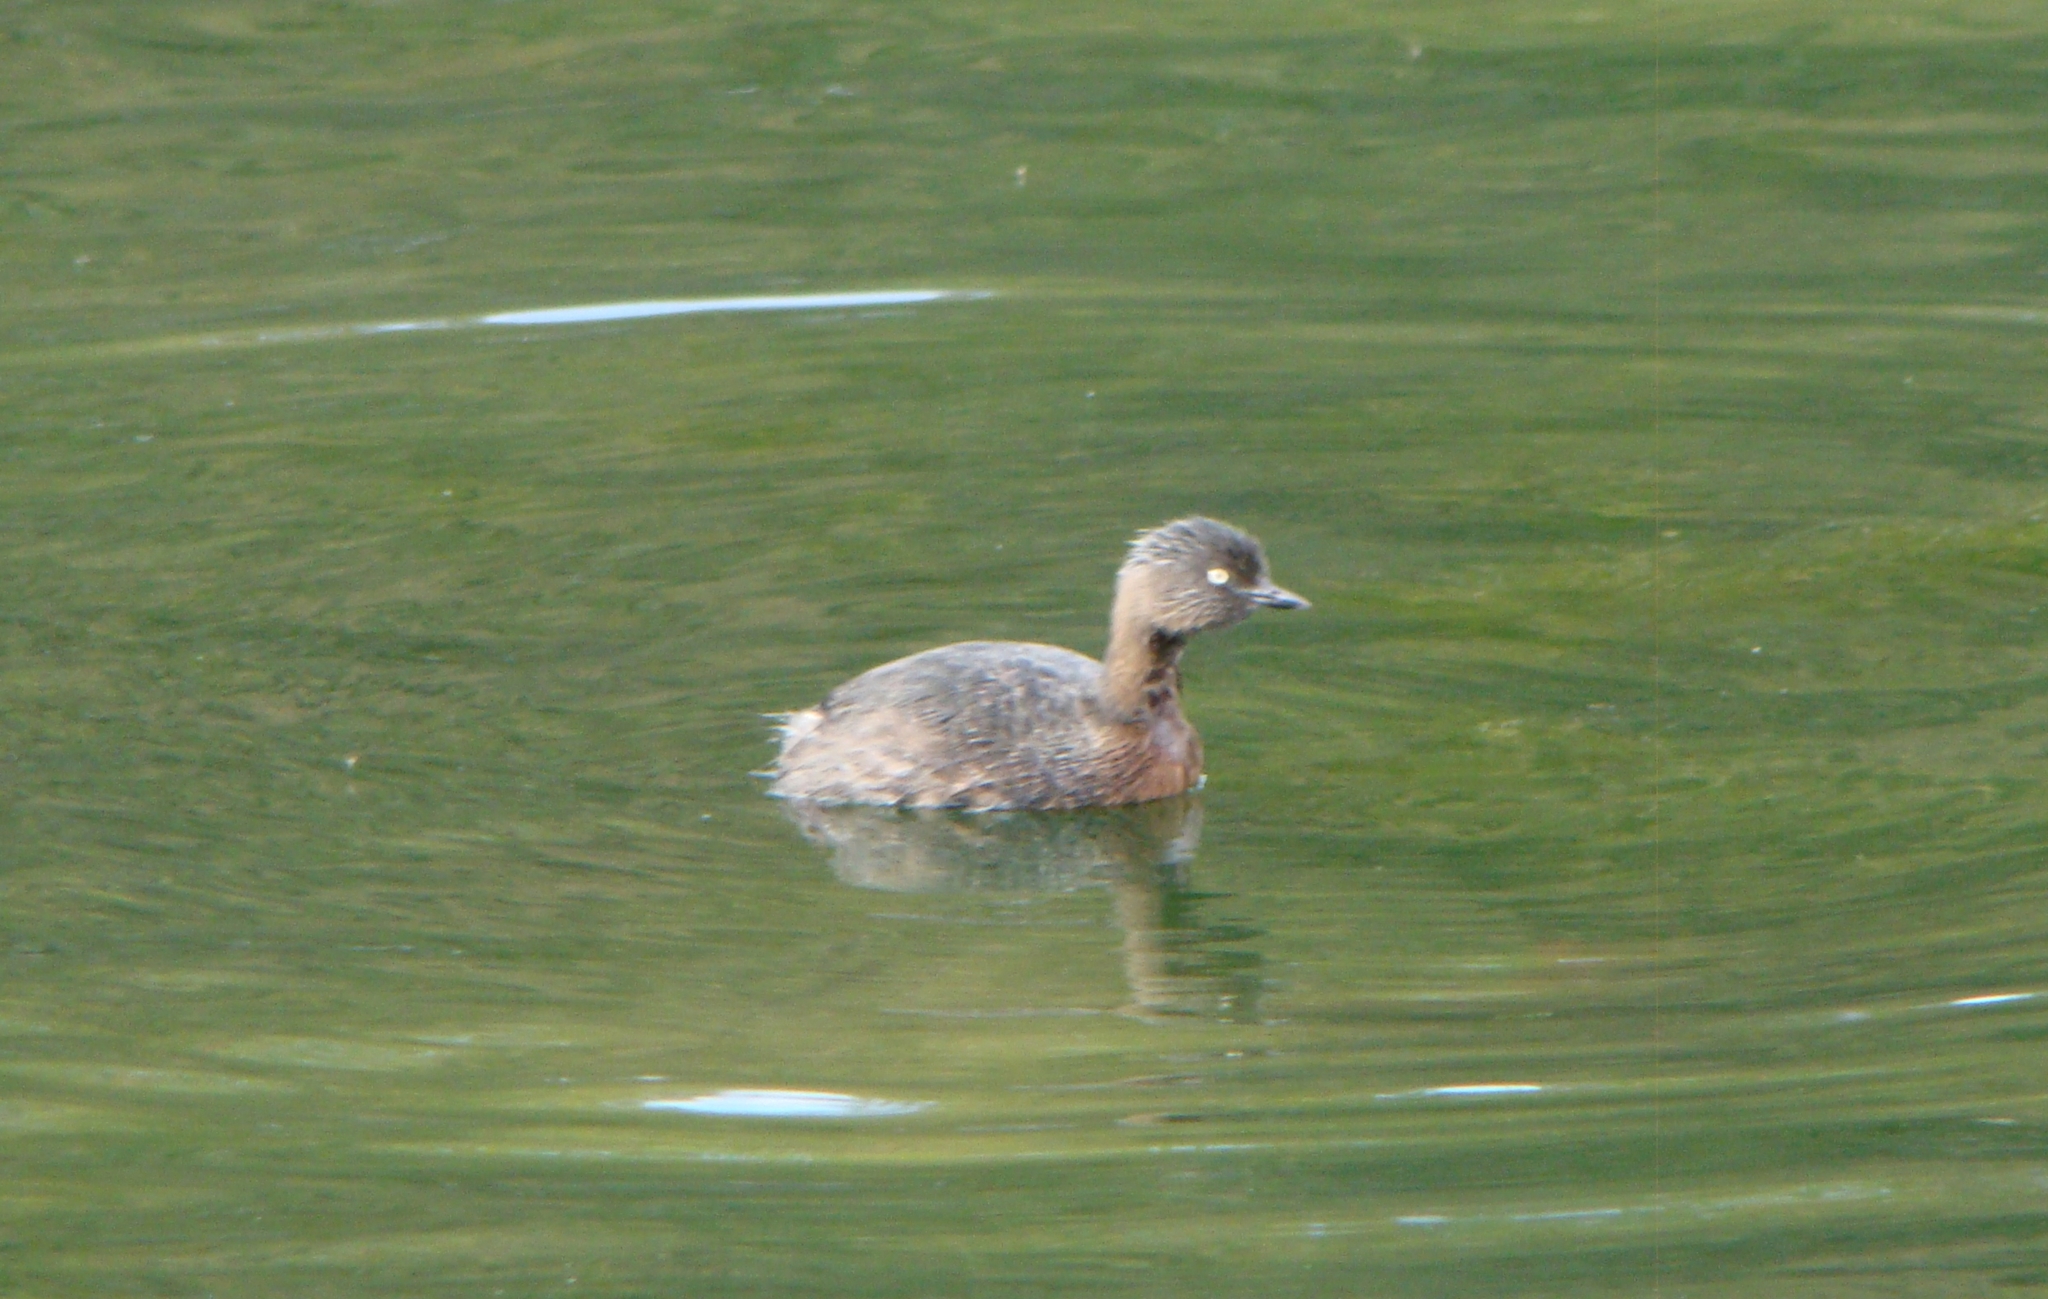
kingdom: Animalia
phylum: Chordata
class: Aves
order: Podicipediformes
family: Podicipedidae
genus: Poliocephalus
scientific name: Poliocephalus rufopectus
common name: New zealand grebe
